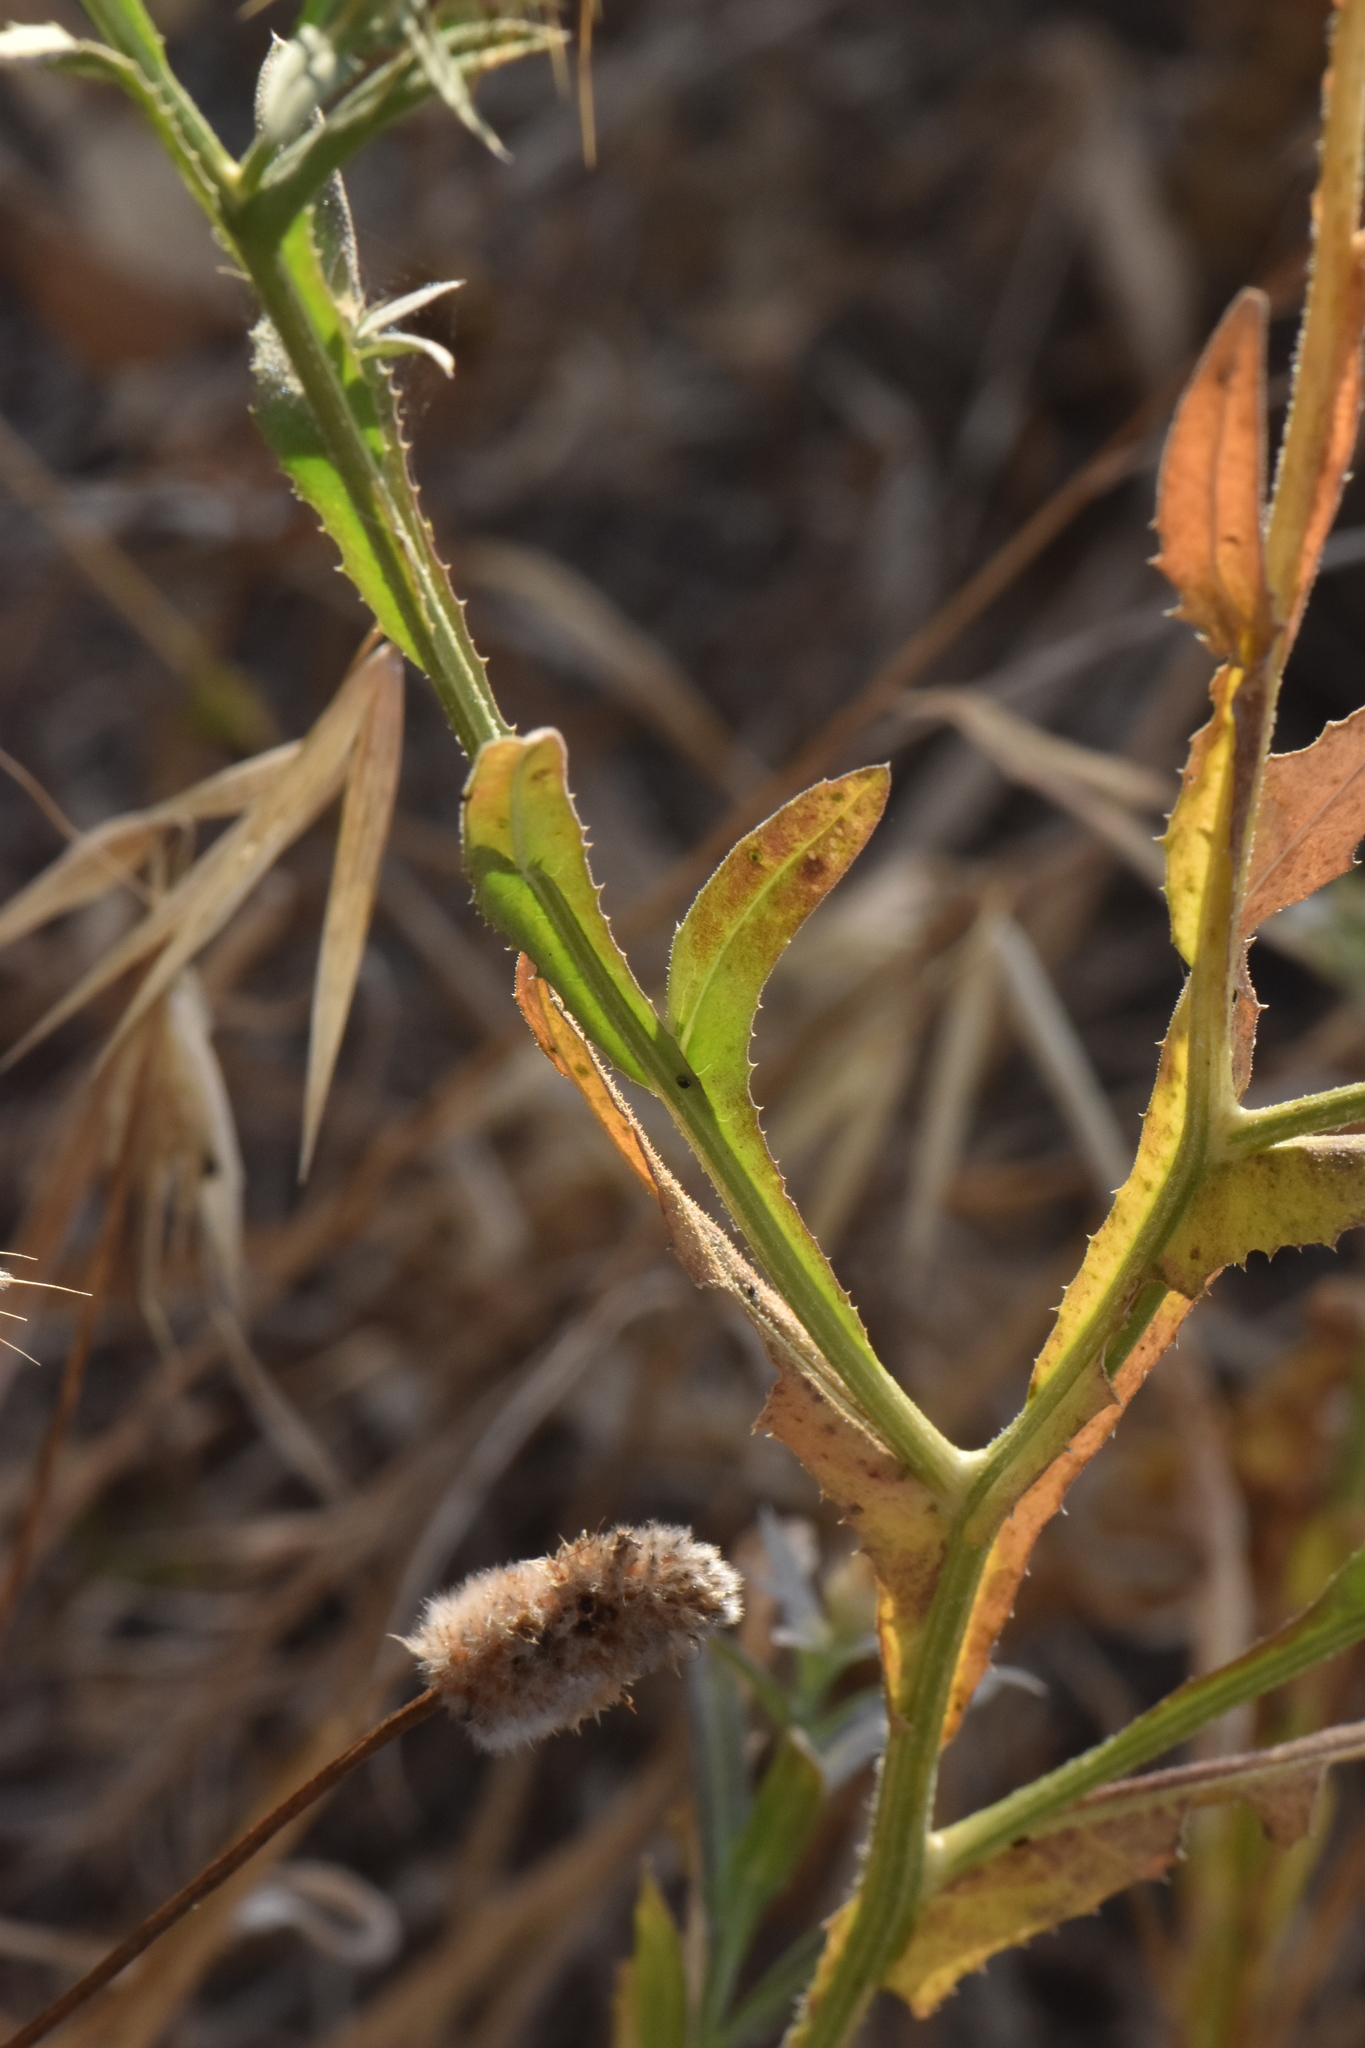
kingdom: Plantae
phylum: Tracheophyta
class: Magnoliopsida
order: Asterales
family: Asteraceae
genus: Centaurea
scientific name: Centaurea sulphurea
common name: Sulphur knapweed
